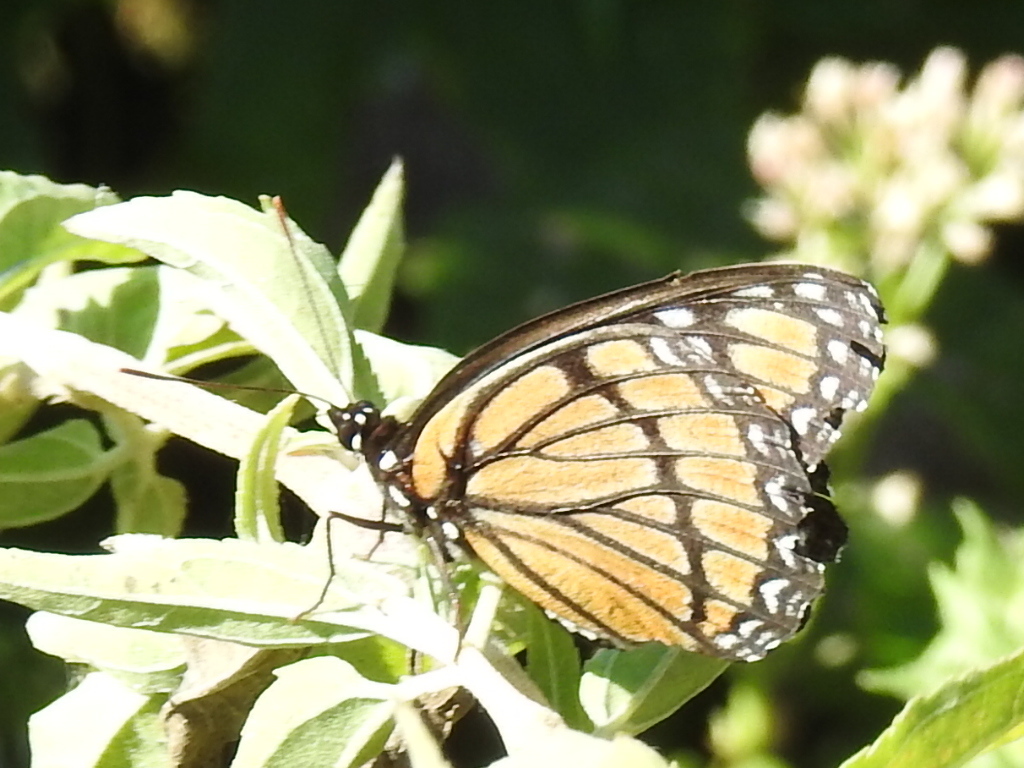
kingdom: Animalia
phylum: Arthropoda
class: Insecta
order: Lepidoptera
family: Nymphalidae
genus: Limenitis
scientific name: Limenitis archippus
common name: Viceroy
